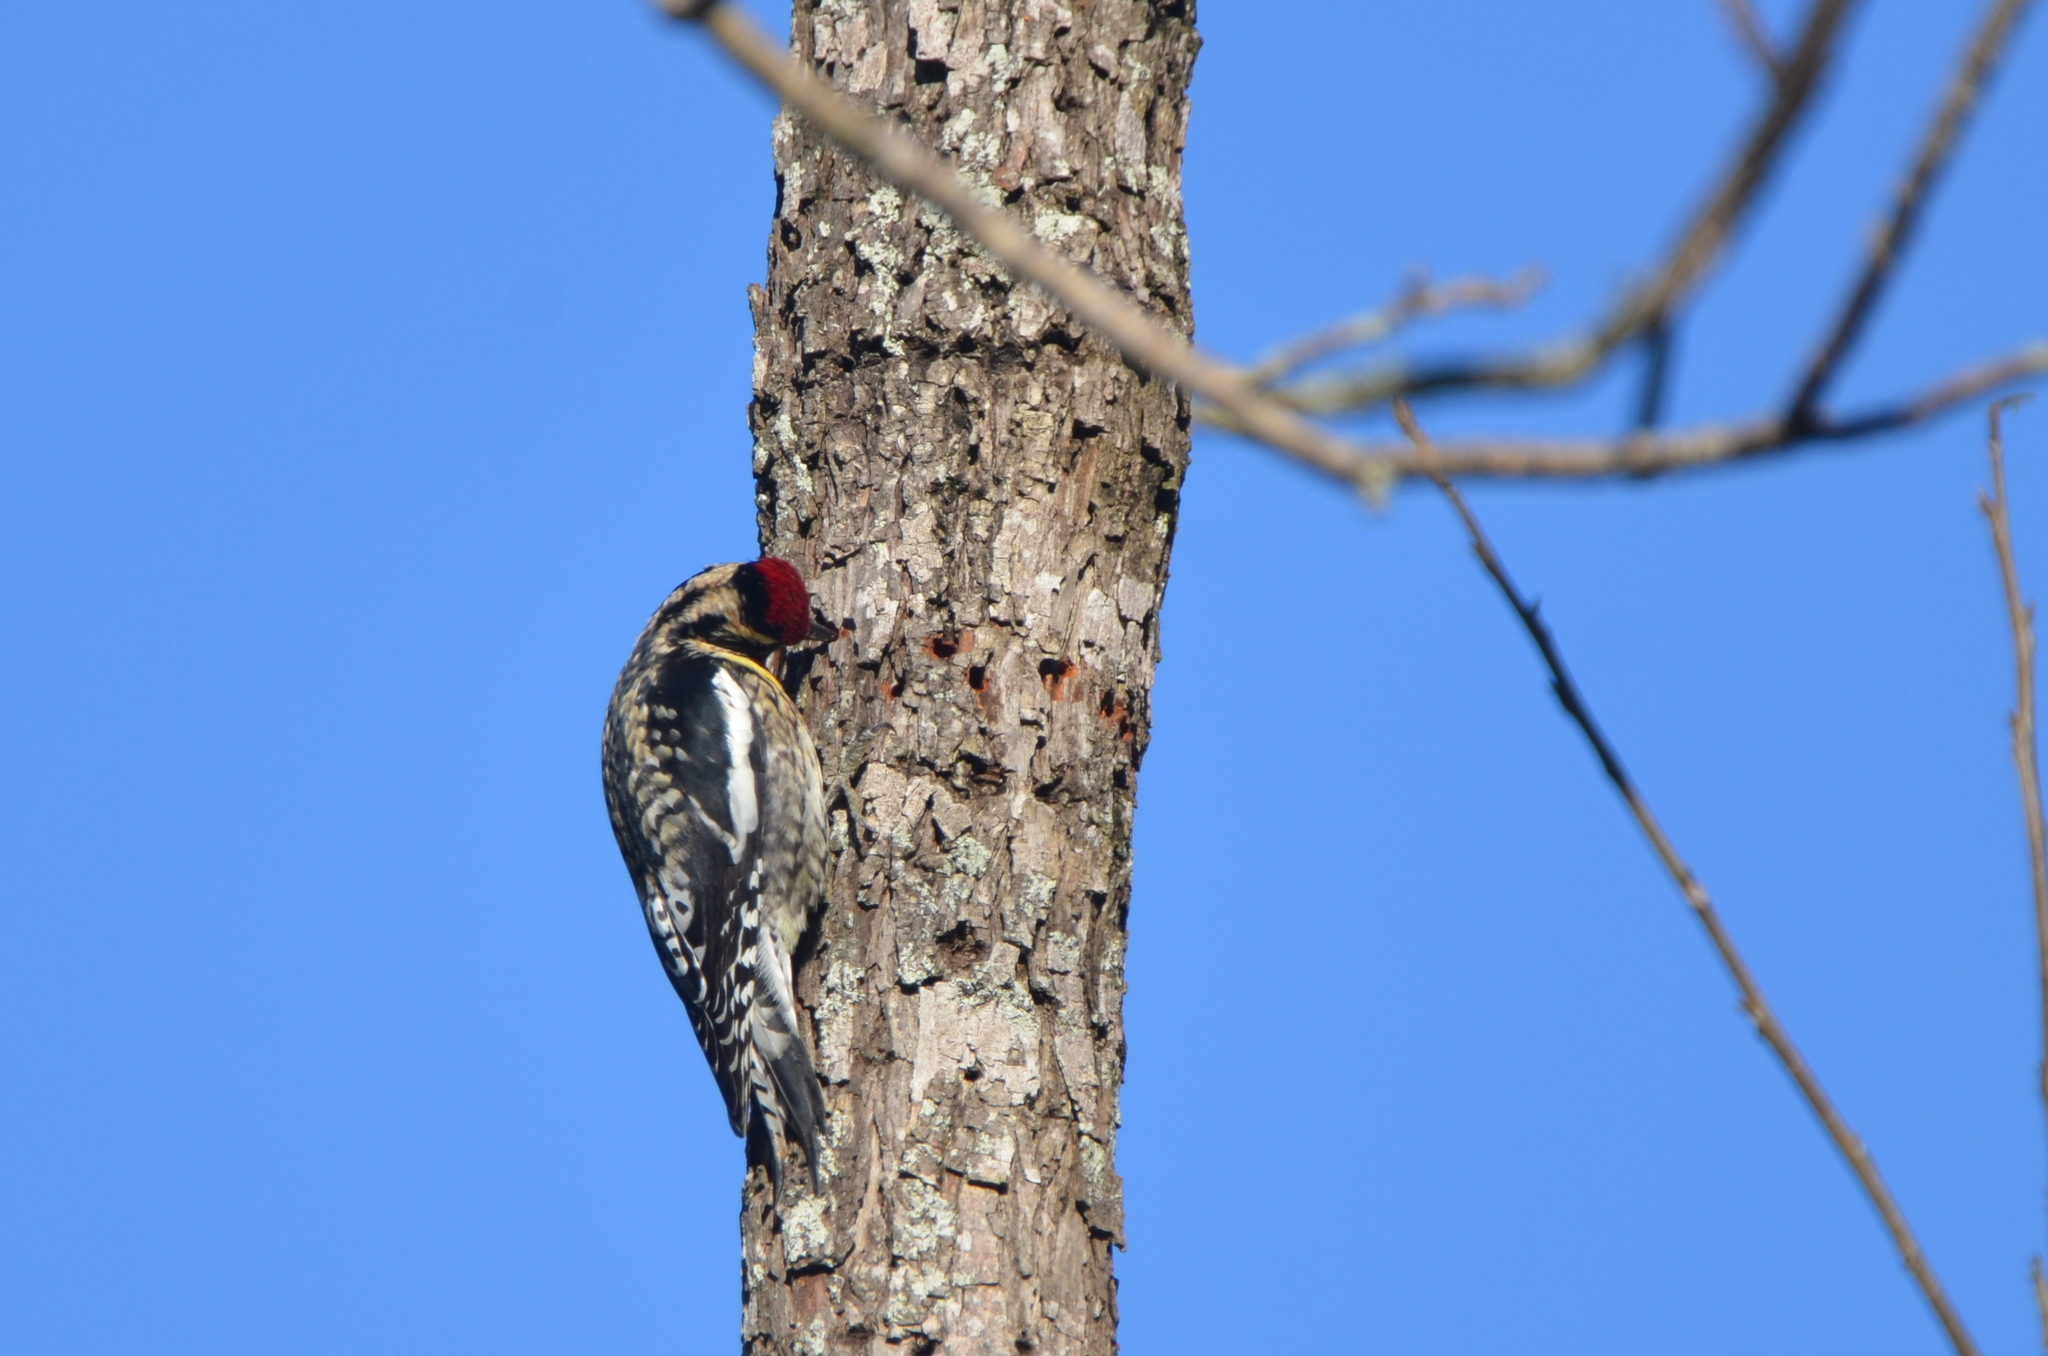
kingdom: Animalia
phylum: Chordata
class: Aves
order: Piciformes
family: Picidae
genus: Sphyrapicus
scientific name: Sphyrapicus varius
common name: Yellow-bellied sapsucker
